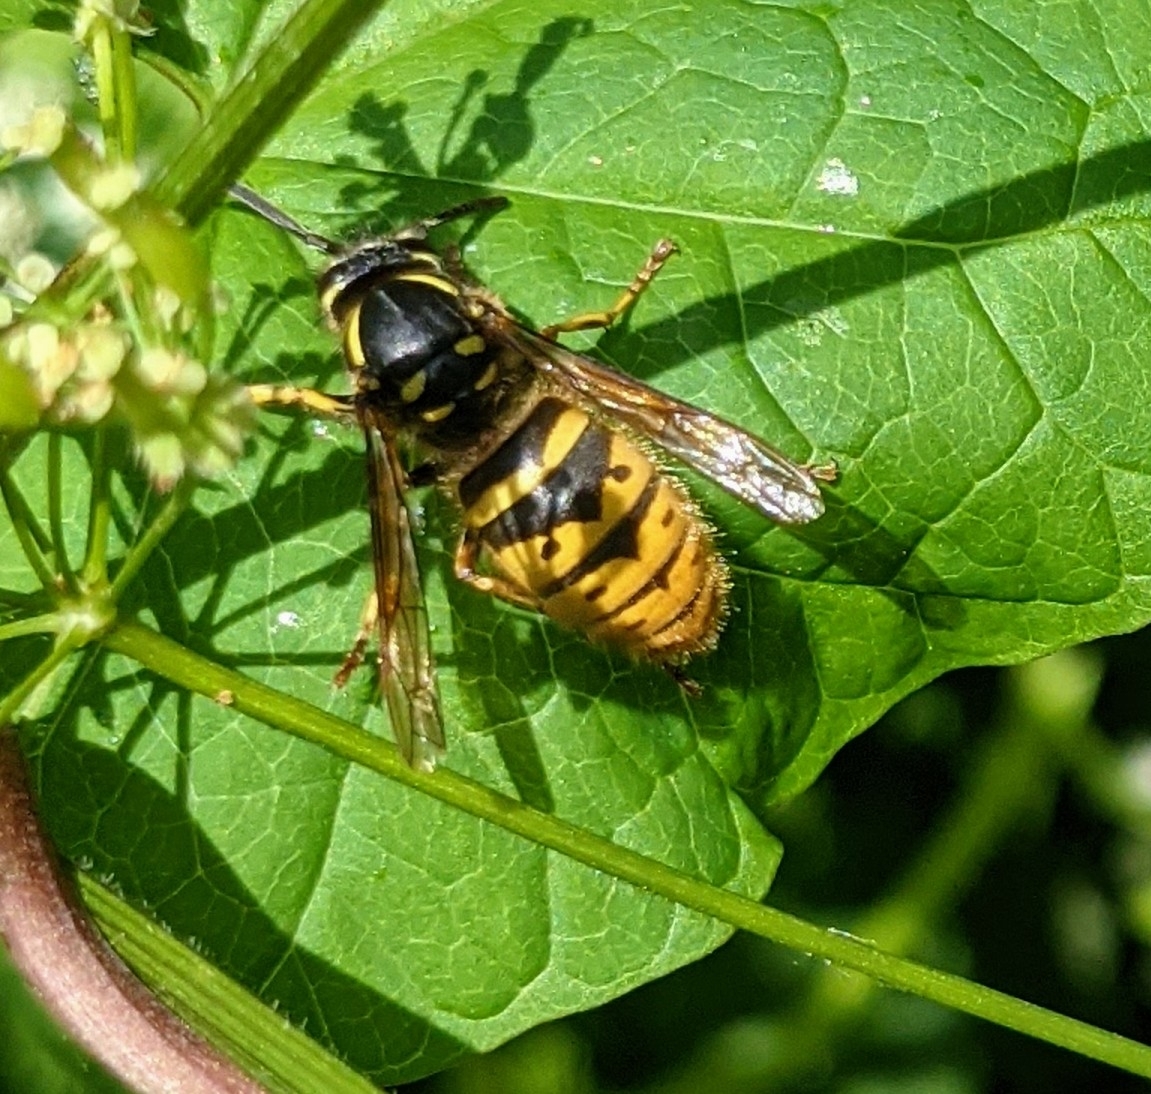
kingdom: Animalia
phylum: Arthropoda
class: Insecta
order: Hymenoptera
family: Vespidae
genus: Vespula
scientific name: Vespula vulgaris
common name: Common wasp
